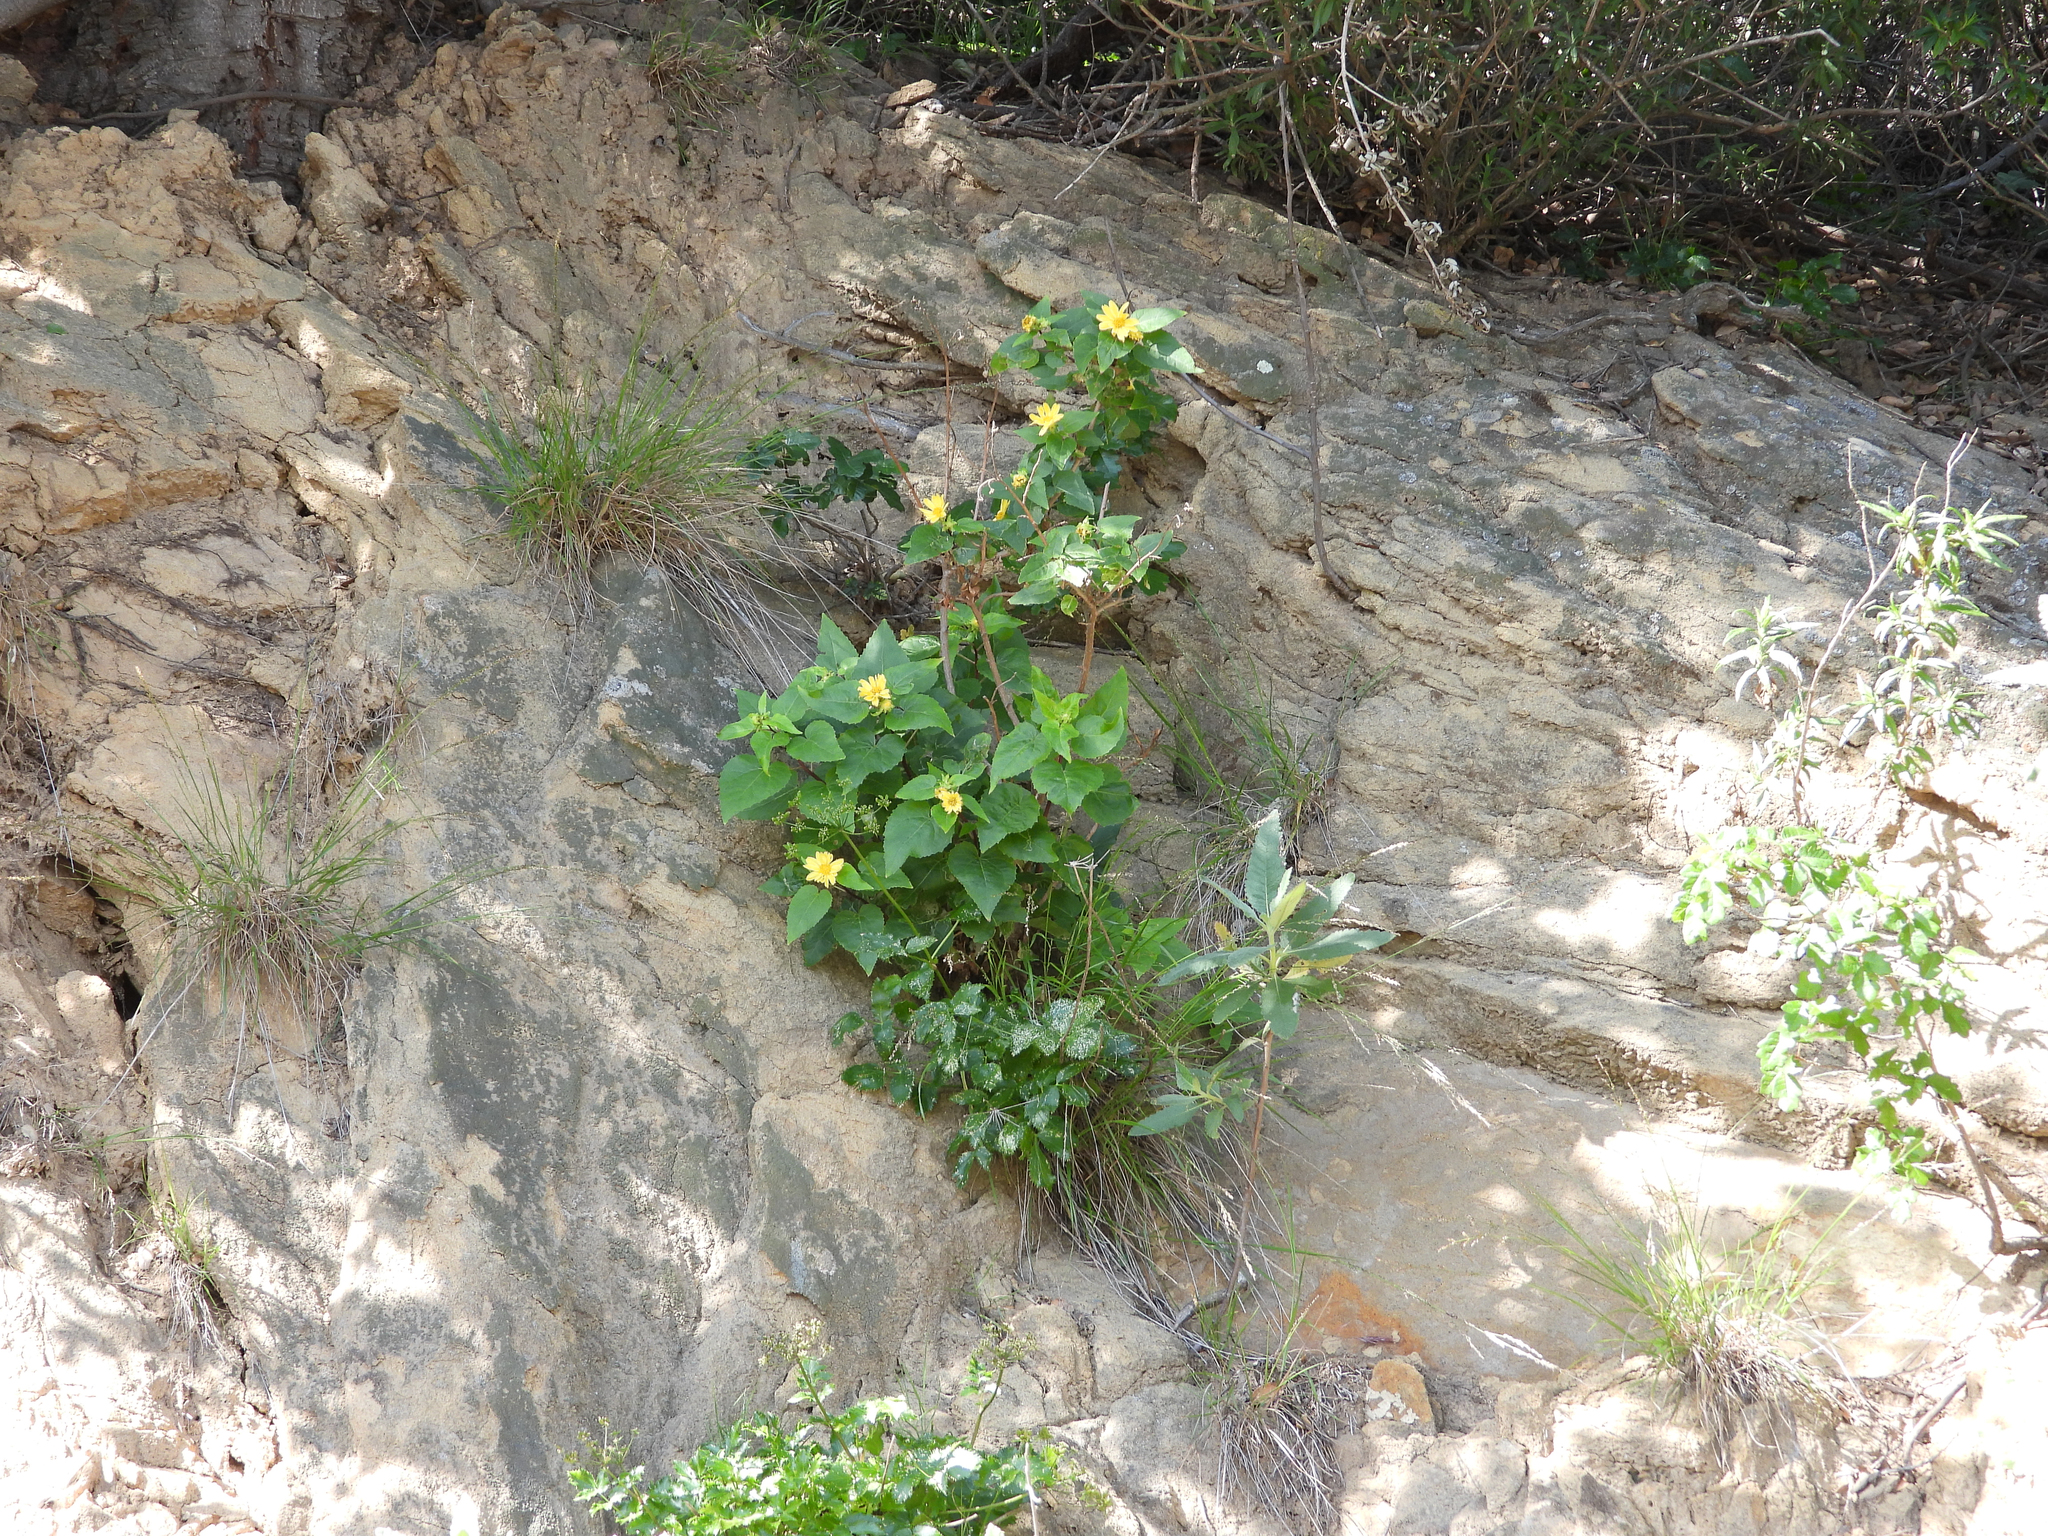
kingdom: Plantae
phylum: Tracheophyta
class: Magnoliopsida
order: Asterales
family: Asteraceae
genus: Venegasia
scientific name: Venegasia carpesioides
